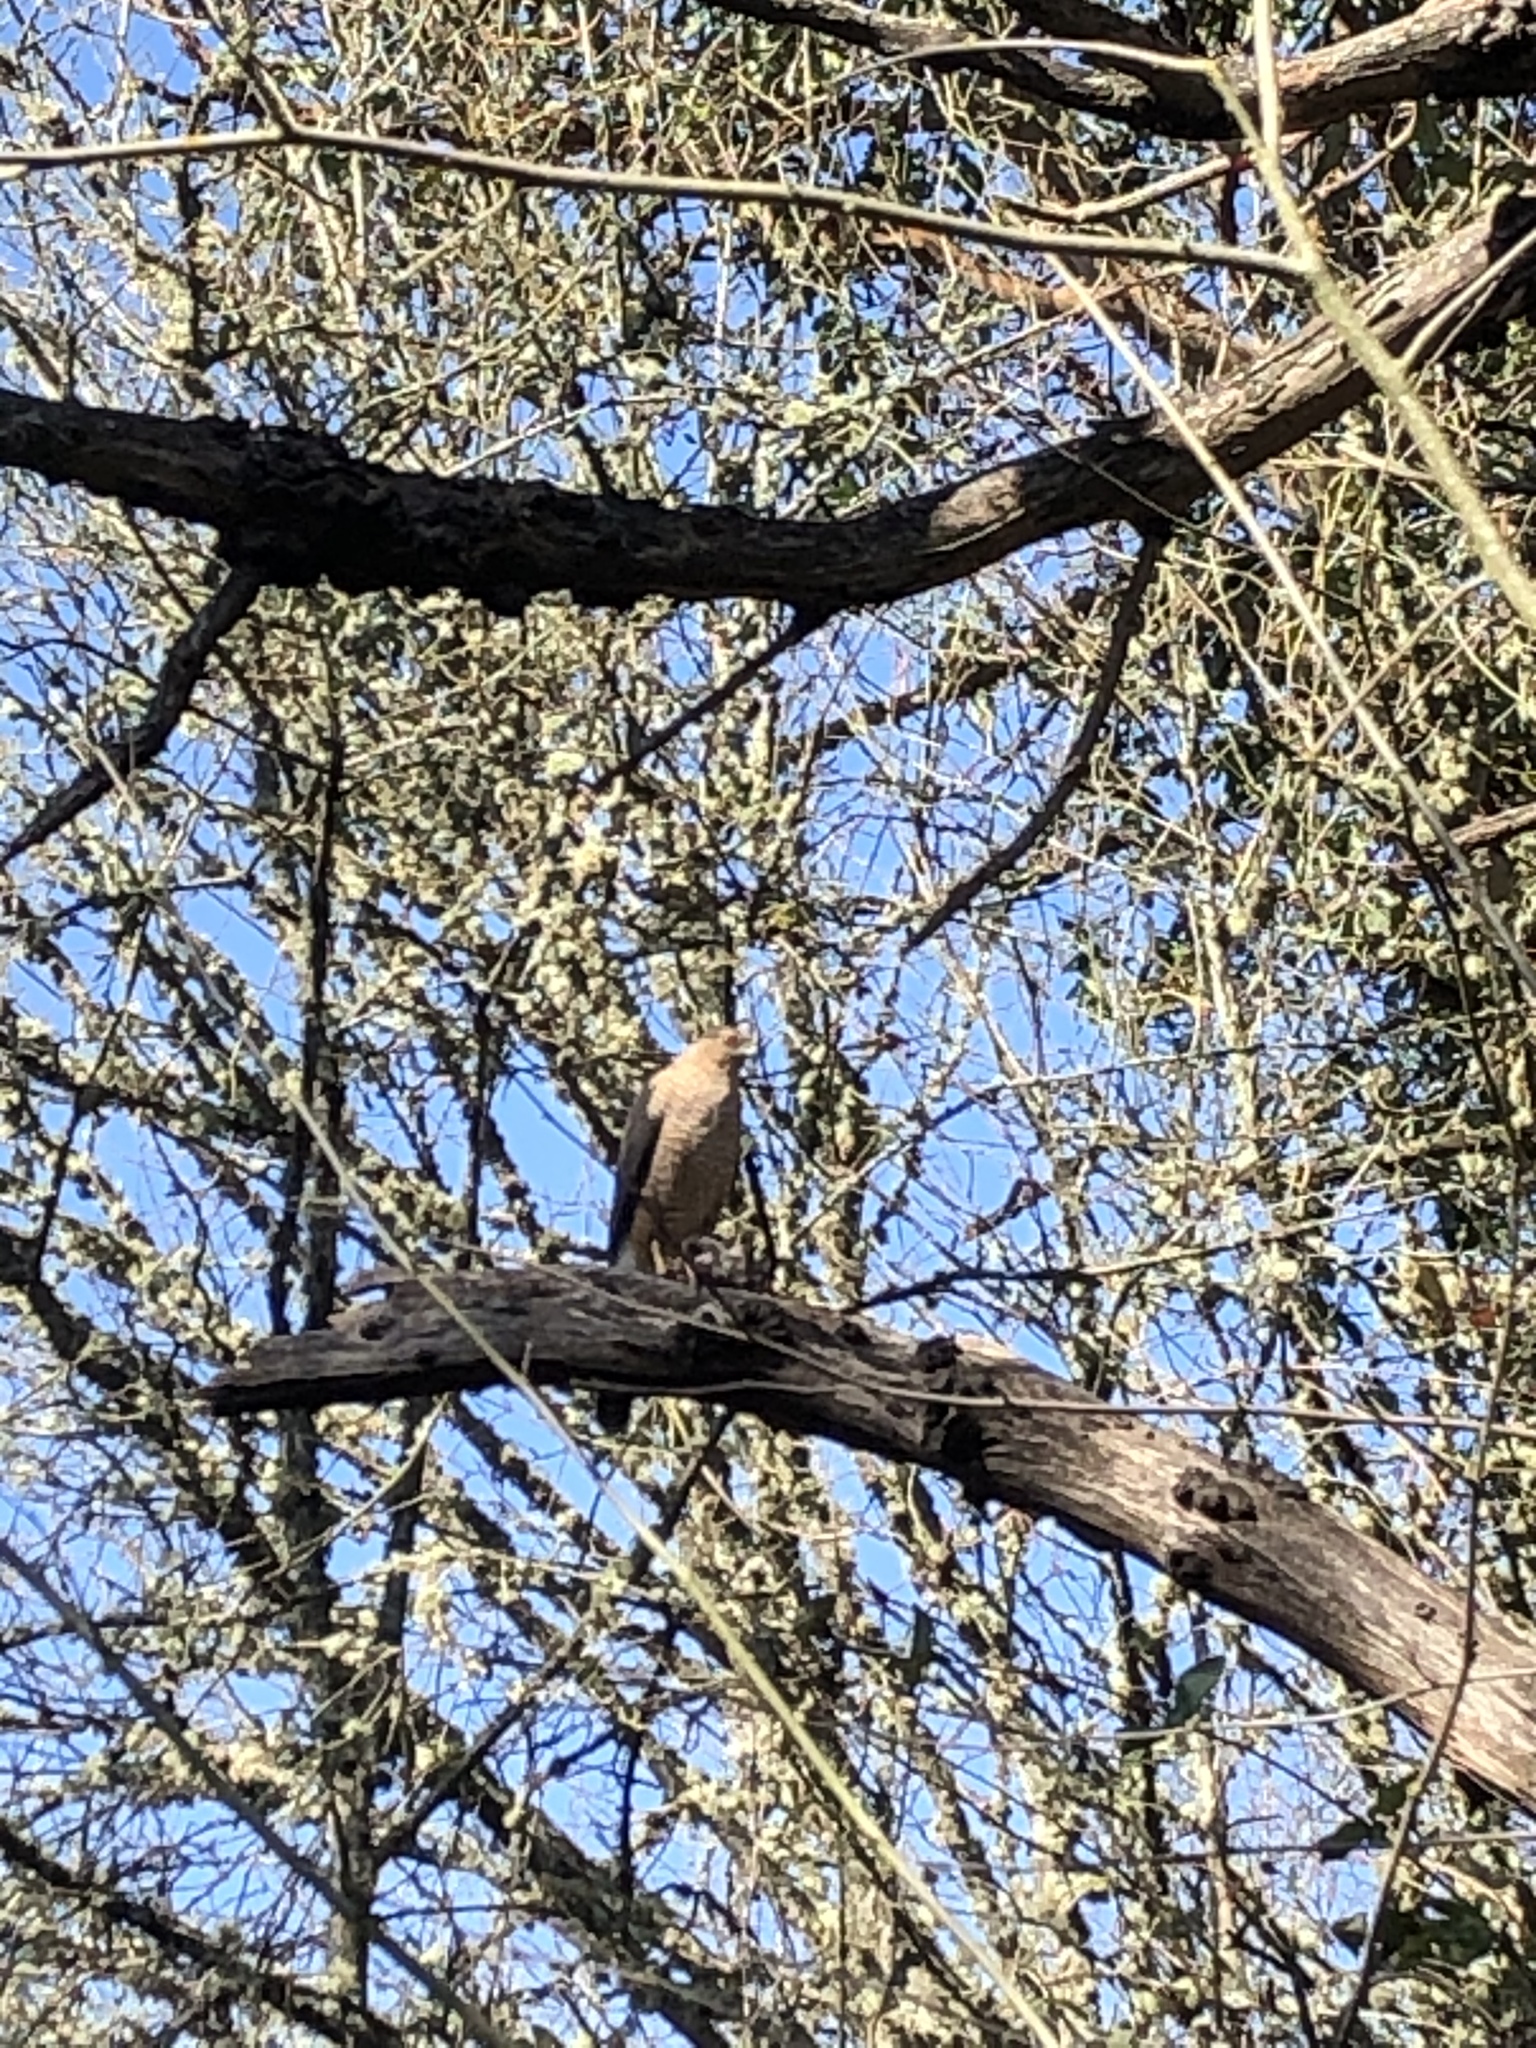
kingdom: Animalia
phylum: Chordata
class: Aves
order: Accipitriformes
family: Accipitridae
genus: Accipiter
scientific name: Accipiter cooperii
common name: Cooper's hawk
